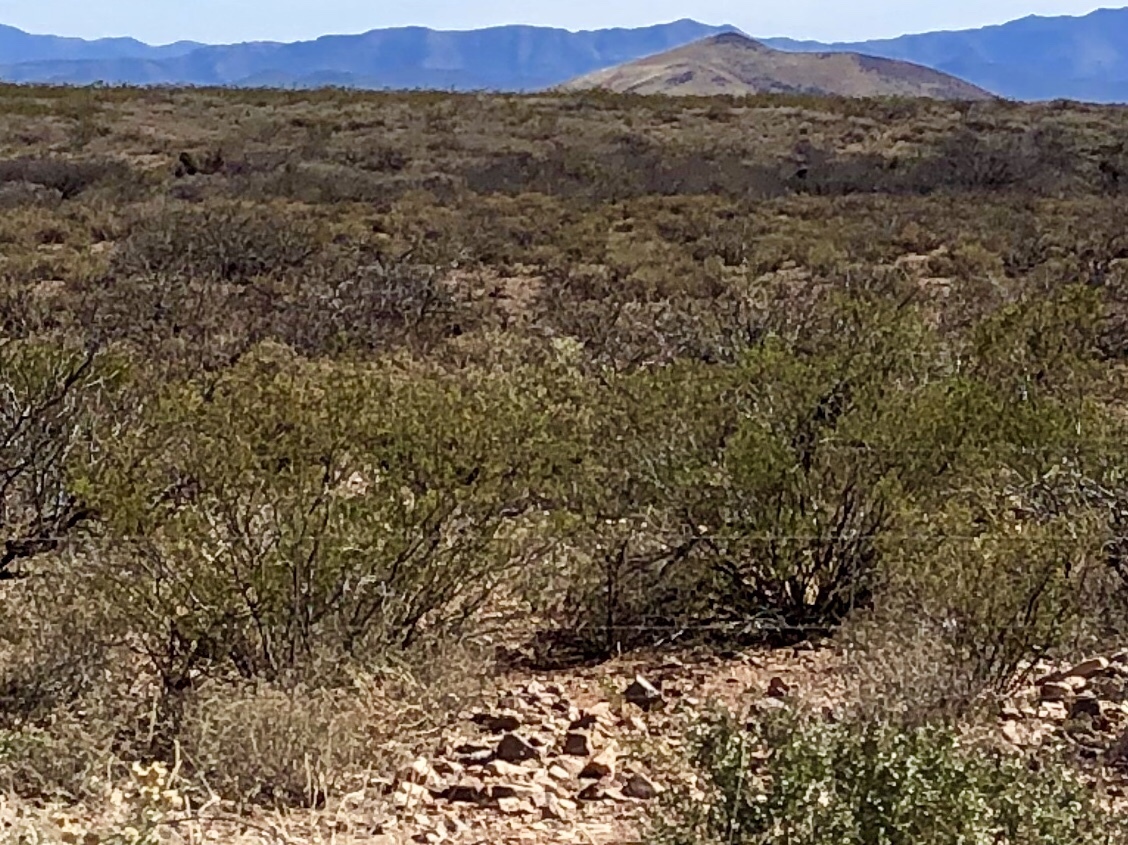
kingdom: Plantae
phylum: Tracheophyta
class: Magnoliopsida
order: Zygophyllales
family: Zygophyllaceae
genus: Larrea
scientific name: Larrea tridentata
